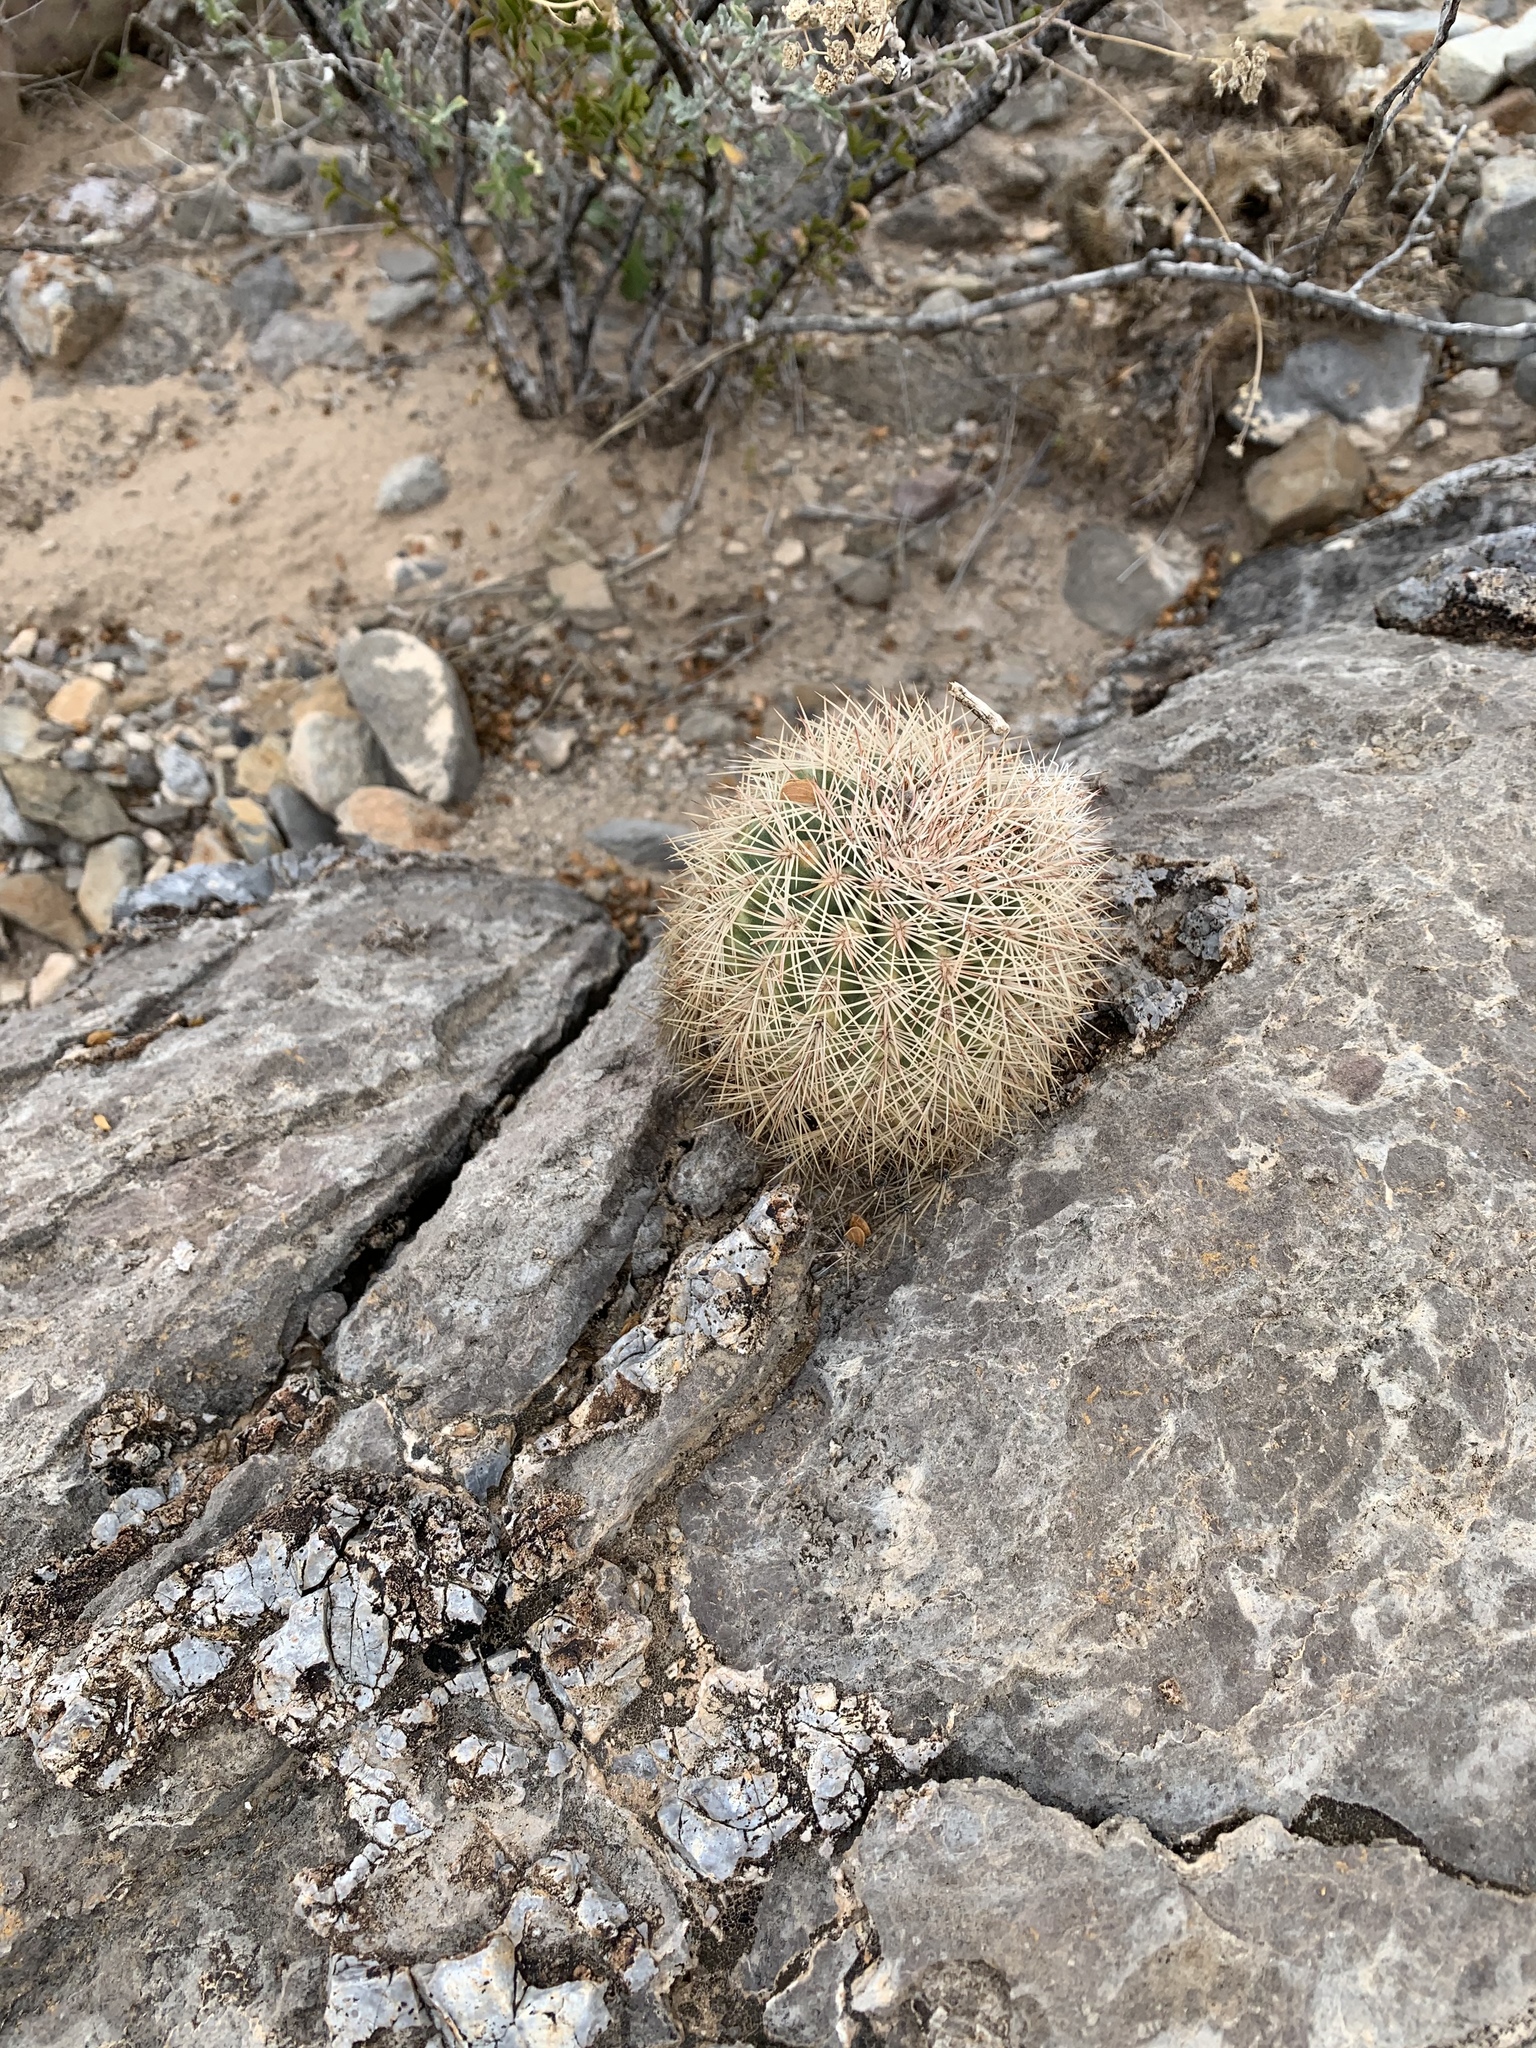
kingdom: Plantae
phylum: Tracheophyta
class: Magnoliopsida
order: Caryophyllales
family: Cactaceae
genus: Echinocereus
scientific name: Echinocereus dasyacanthus
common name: Spiny hedgehog cactus
